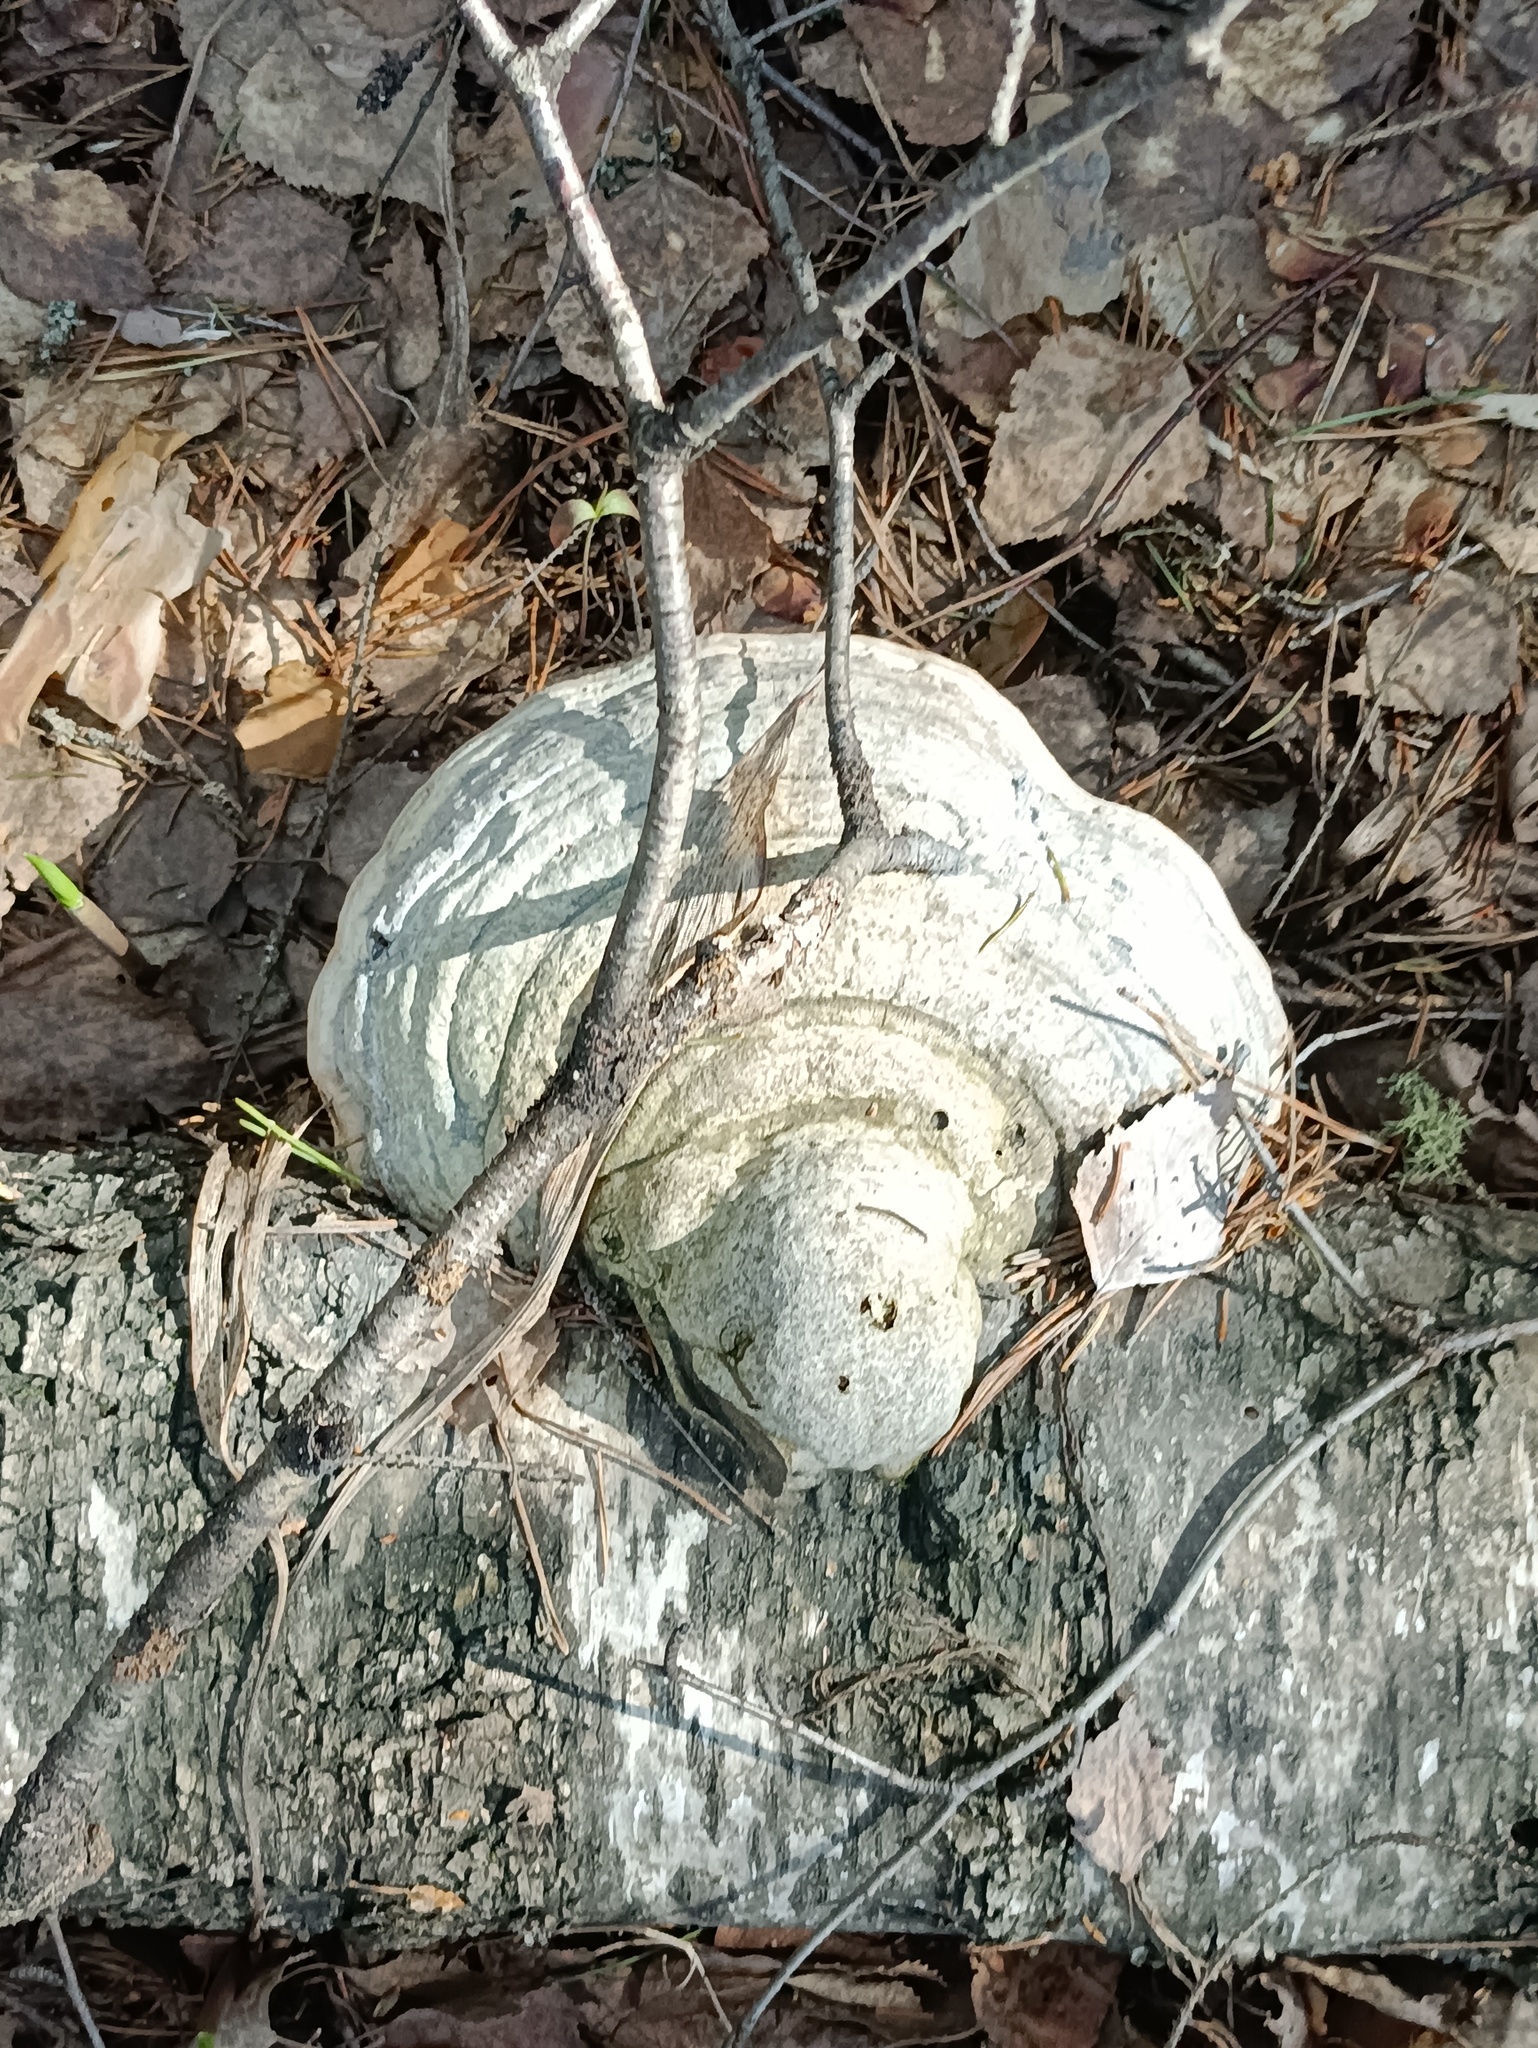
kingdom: Fungi
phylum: Basidiomycota
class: Agaricomycetes
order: Polyporales
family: Polyporaceae
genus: Fomes
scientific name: Fomes fomentarius
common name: Hoof fungus
